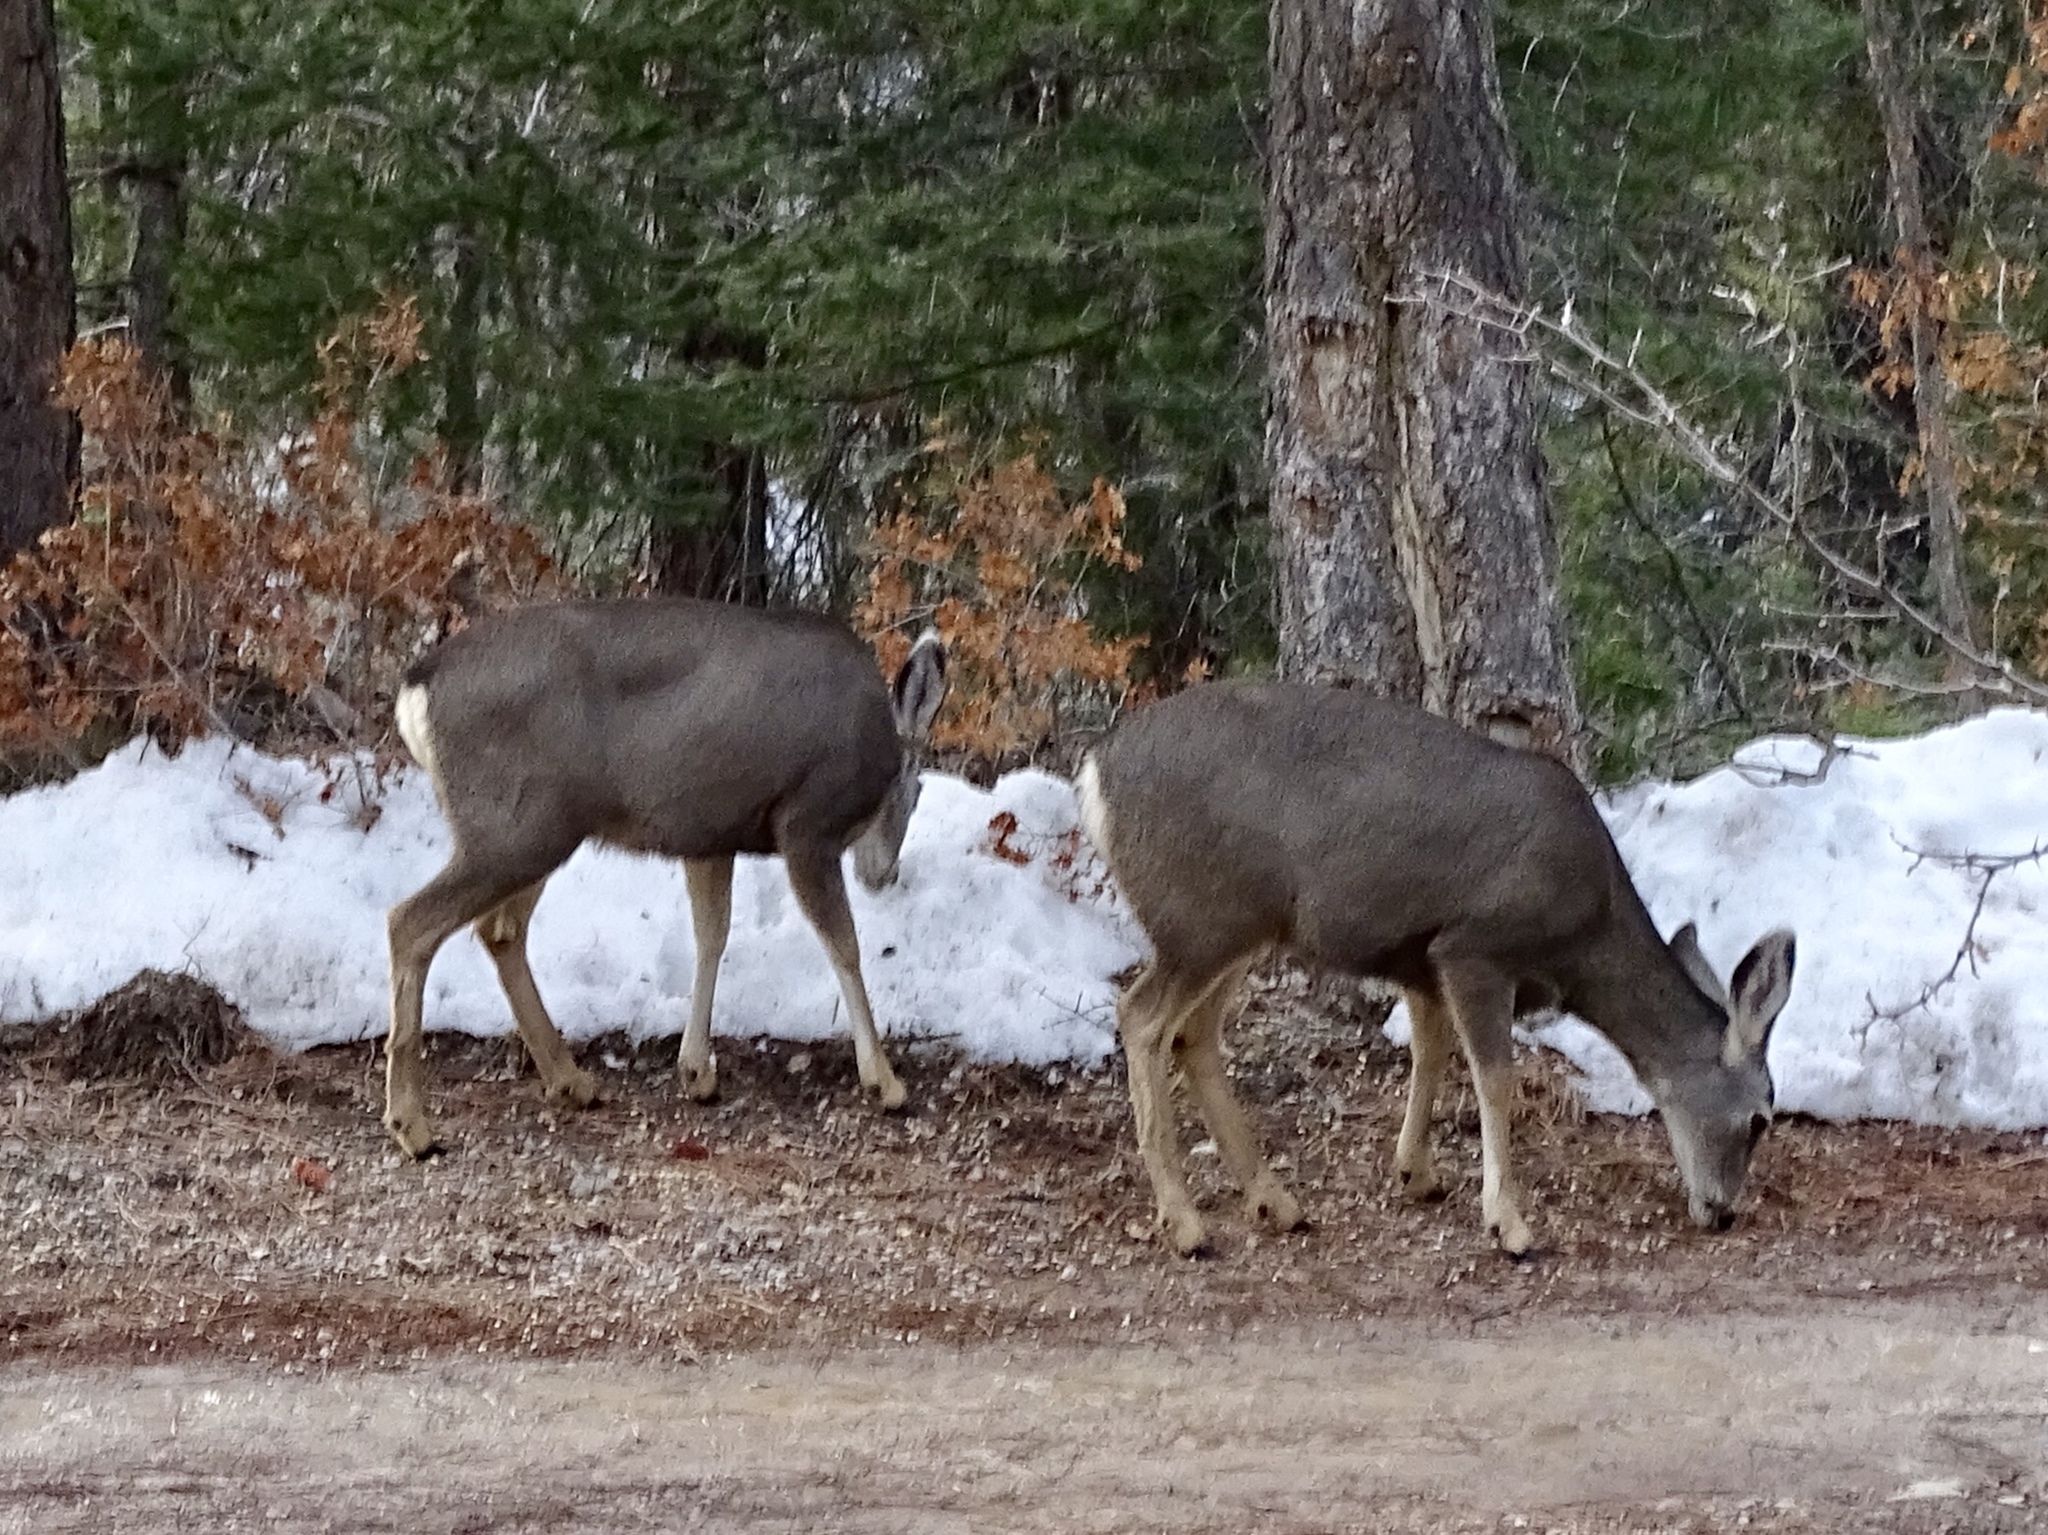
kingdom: Animalia
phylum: Chordata
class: Mammalia
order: Artiodactyla
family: Cervidae
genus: Odocoileus
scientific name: Odocoileus hemionus
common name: Mule deer
